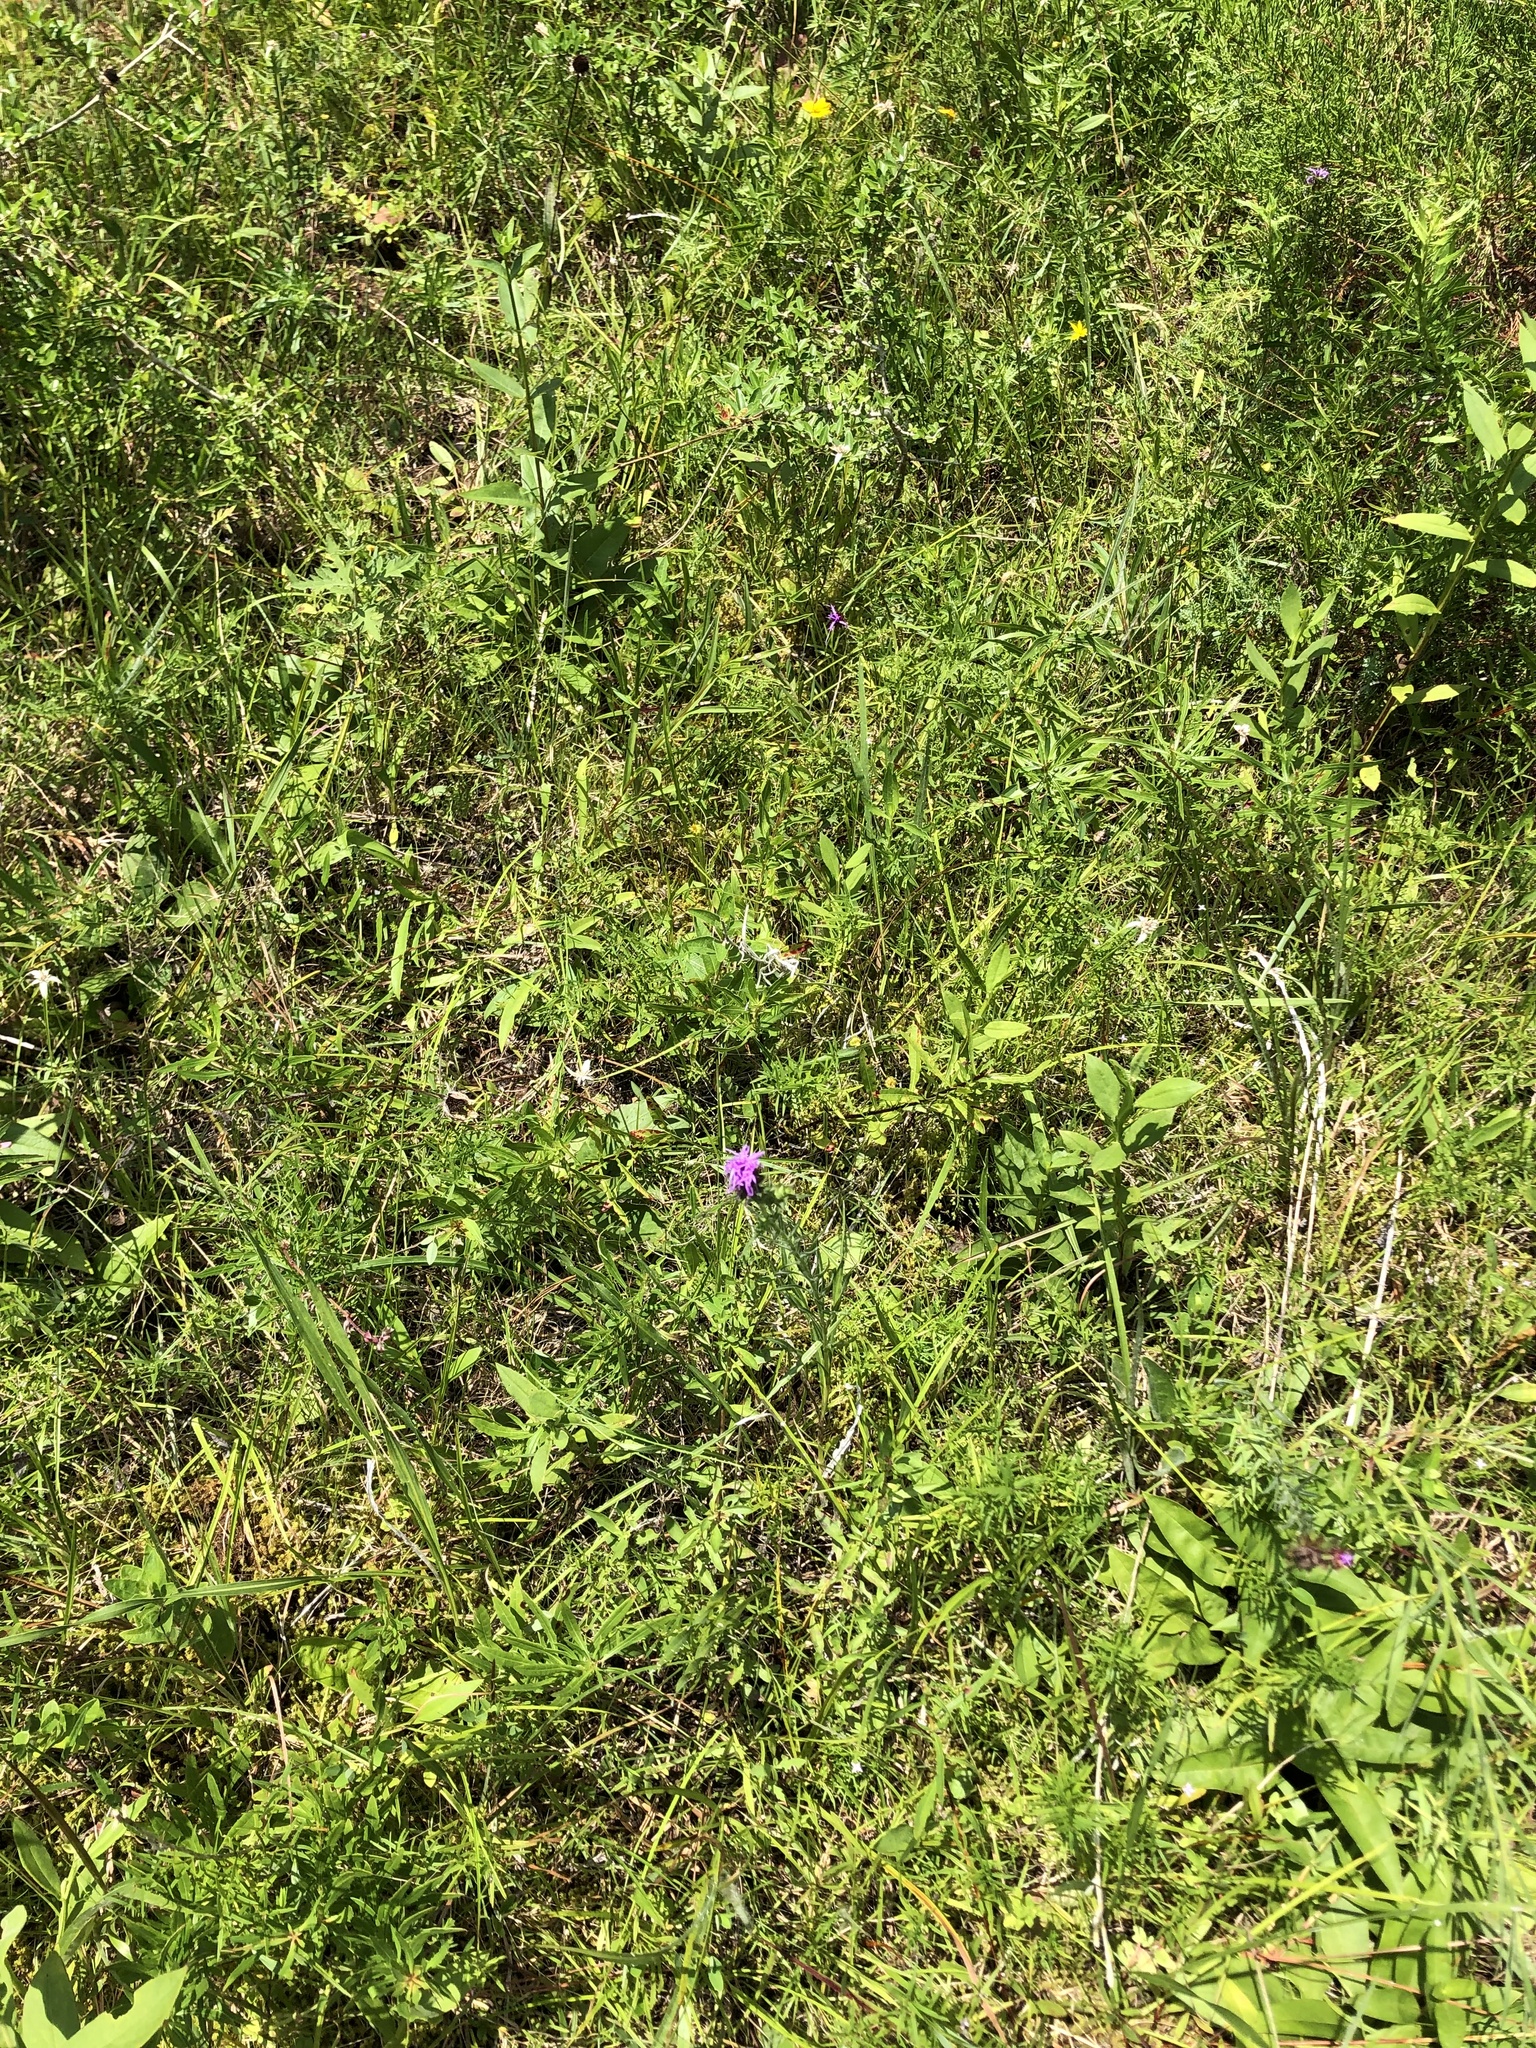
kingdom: Plantae
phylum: Tracheophyta
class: Magnoliopsida
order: Asterales
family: Asteraceae
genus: Liatris
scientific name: Liatris squarrosa
